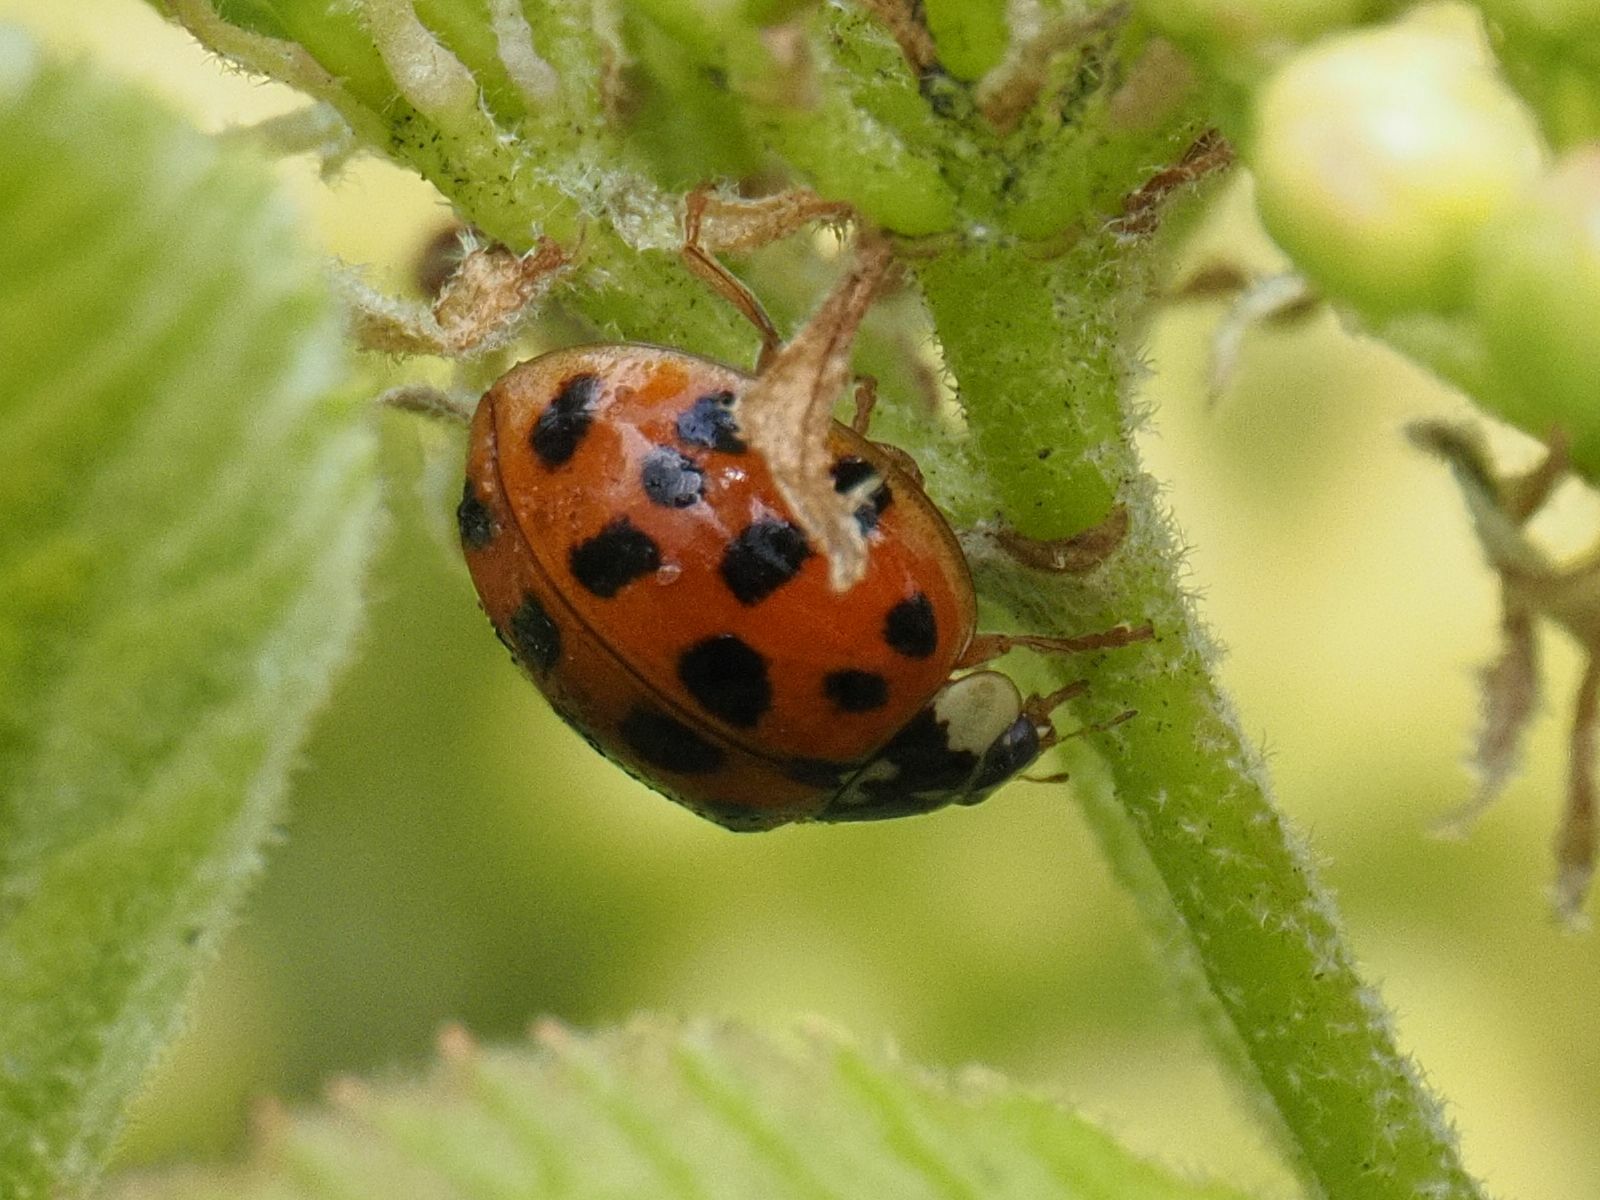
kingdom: Animalia
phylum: Arthropoda
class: Insecta
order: Coleoptera
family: Coccinellidae
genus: Harmonia
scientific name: Harmonia axyridis
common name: Harlequin ladybird
